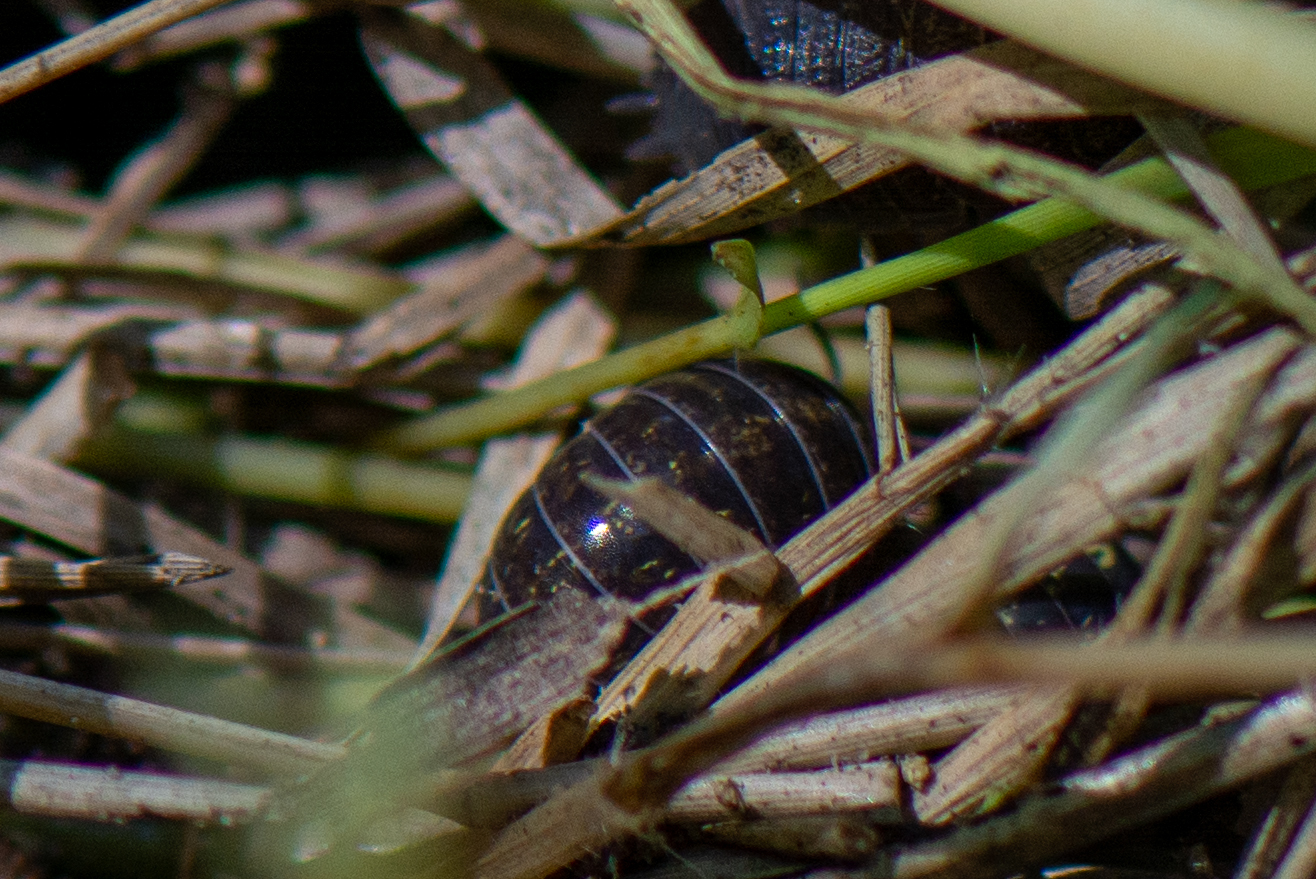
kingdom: Animalia
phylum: Arthropoda
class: Malacostraca
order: Isopoda
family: Armadillidiidae
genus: Armadillidium
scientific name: Armadillidium vulgare
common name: Common pill woodlouse
